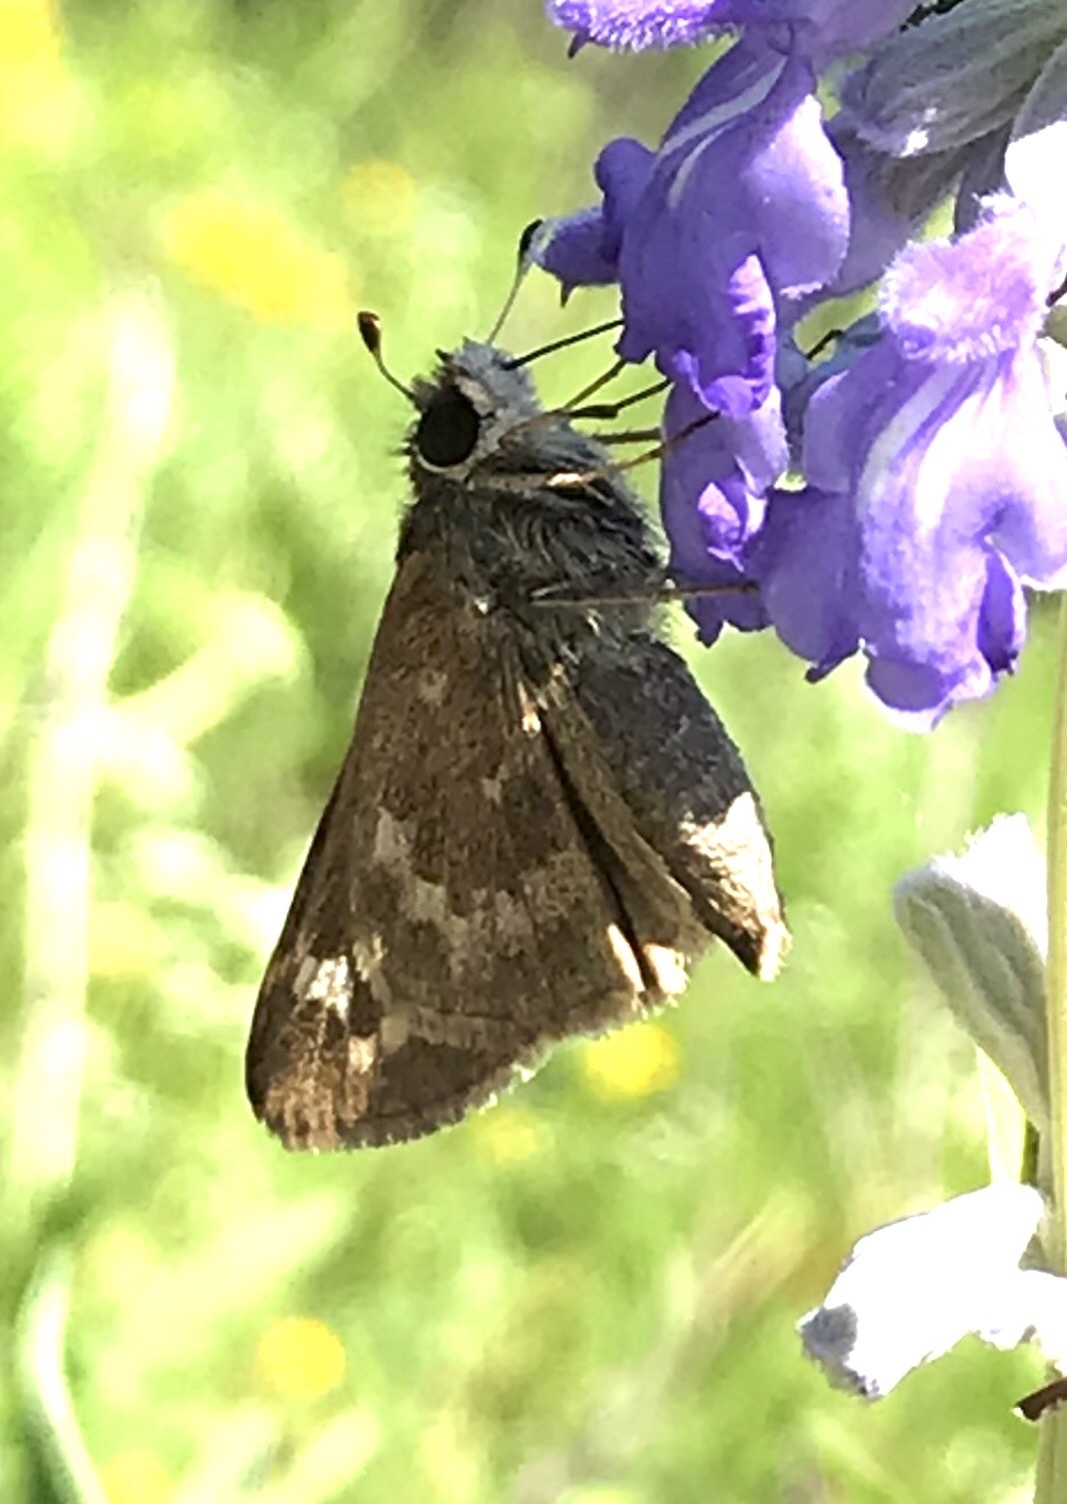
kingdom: Animalia
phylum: Arthropoda
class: Insecta
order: Lepidoptera
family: Hesperiidae
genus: Atalopedes
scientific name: Atalopedes
